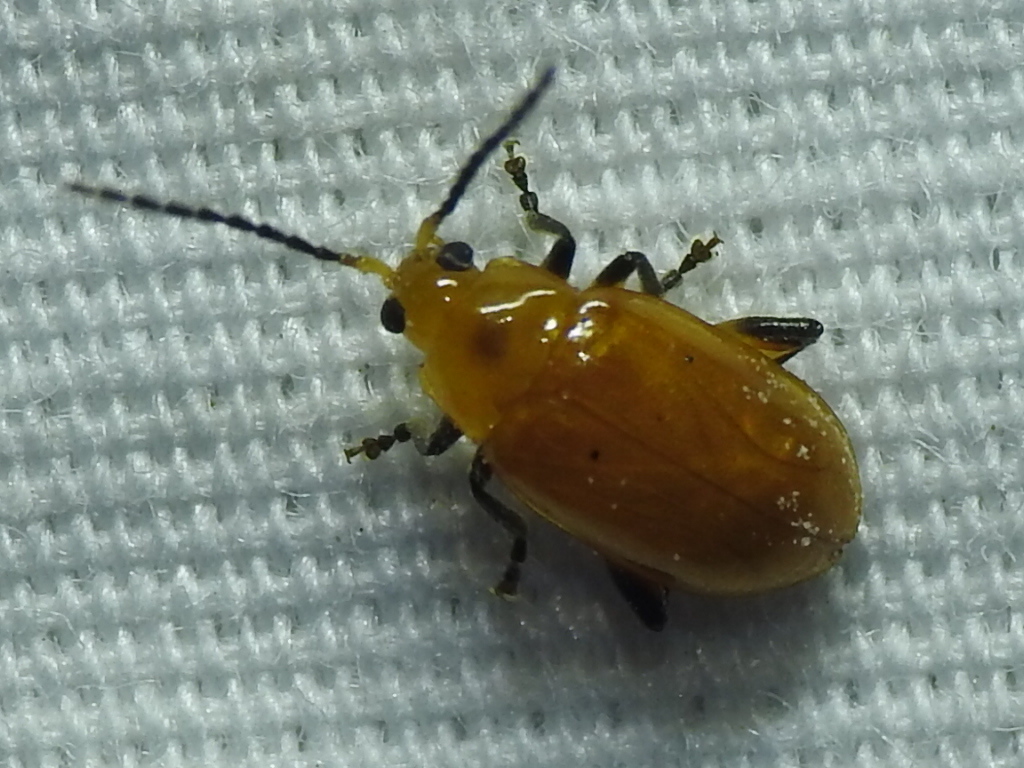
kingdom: Animalia
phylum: Arthropoda
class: Insecta
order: Coleoptera
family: Chrysomelidae
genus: Parchicola
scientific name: Parchicola tibialis
